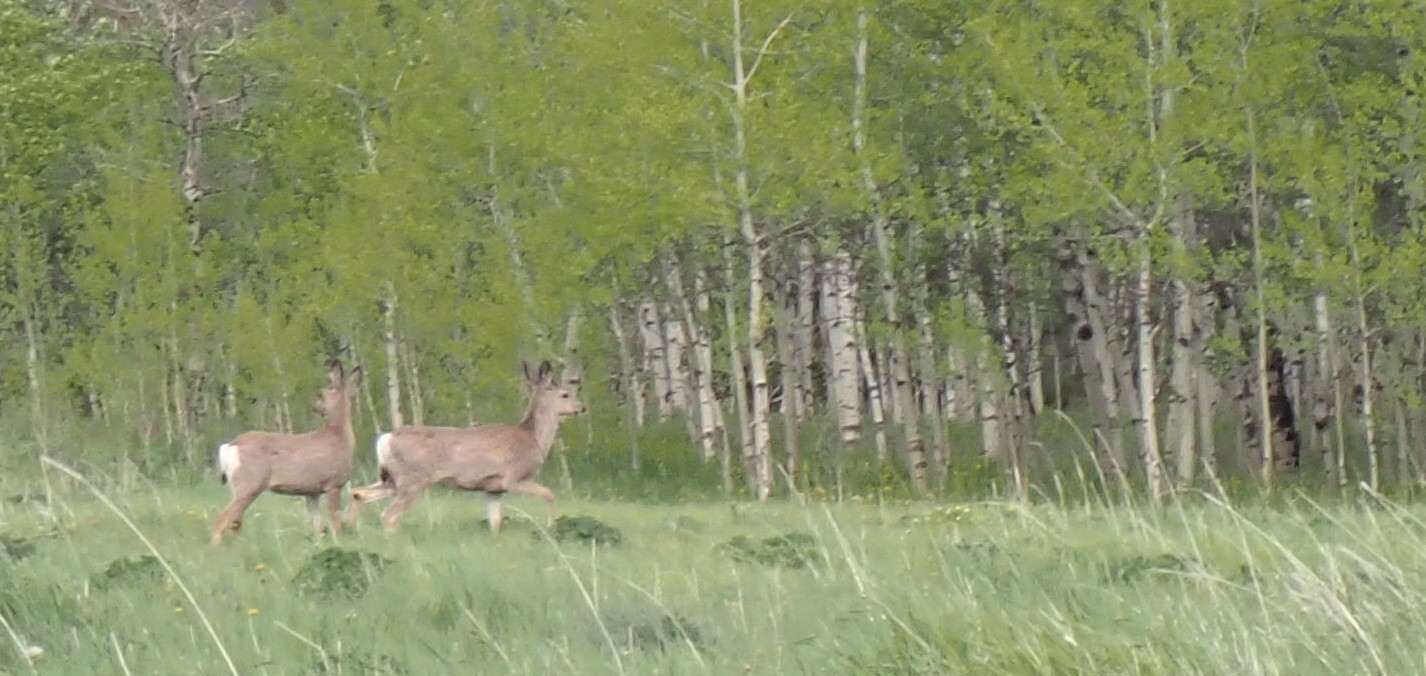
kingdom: Animalia
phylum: Chordata
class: Mammalia
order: Artiodactyla
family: Cervidae
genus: Odocoileus
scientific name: Odocoileus hemionus
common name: Mule deer
